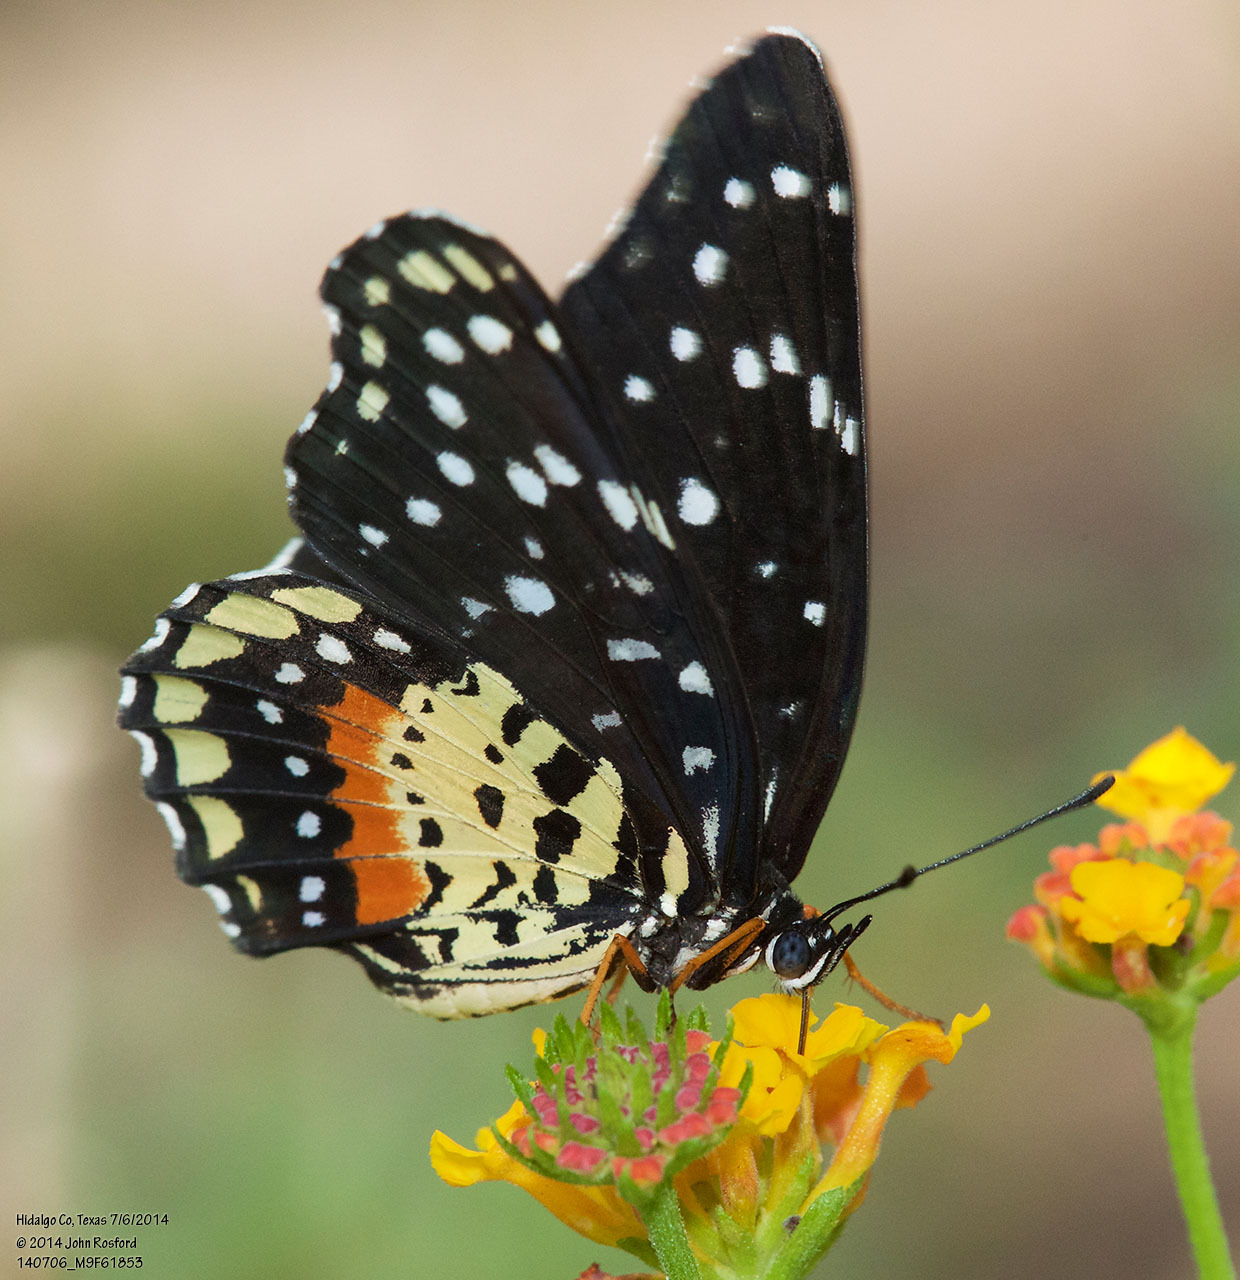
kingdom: Animalia
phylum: Arthropoda
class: Insecta
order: Lepidoptera
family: Nymphalidae
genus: Chlosyne
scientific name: Chlosyne janais
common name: Crimson patch
